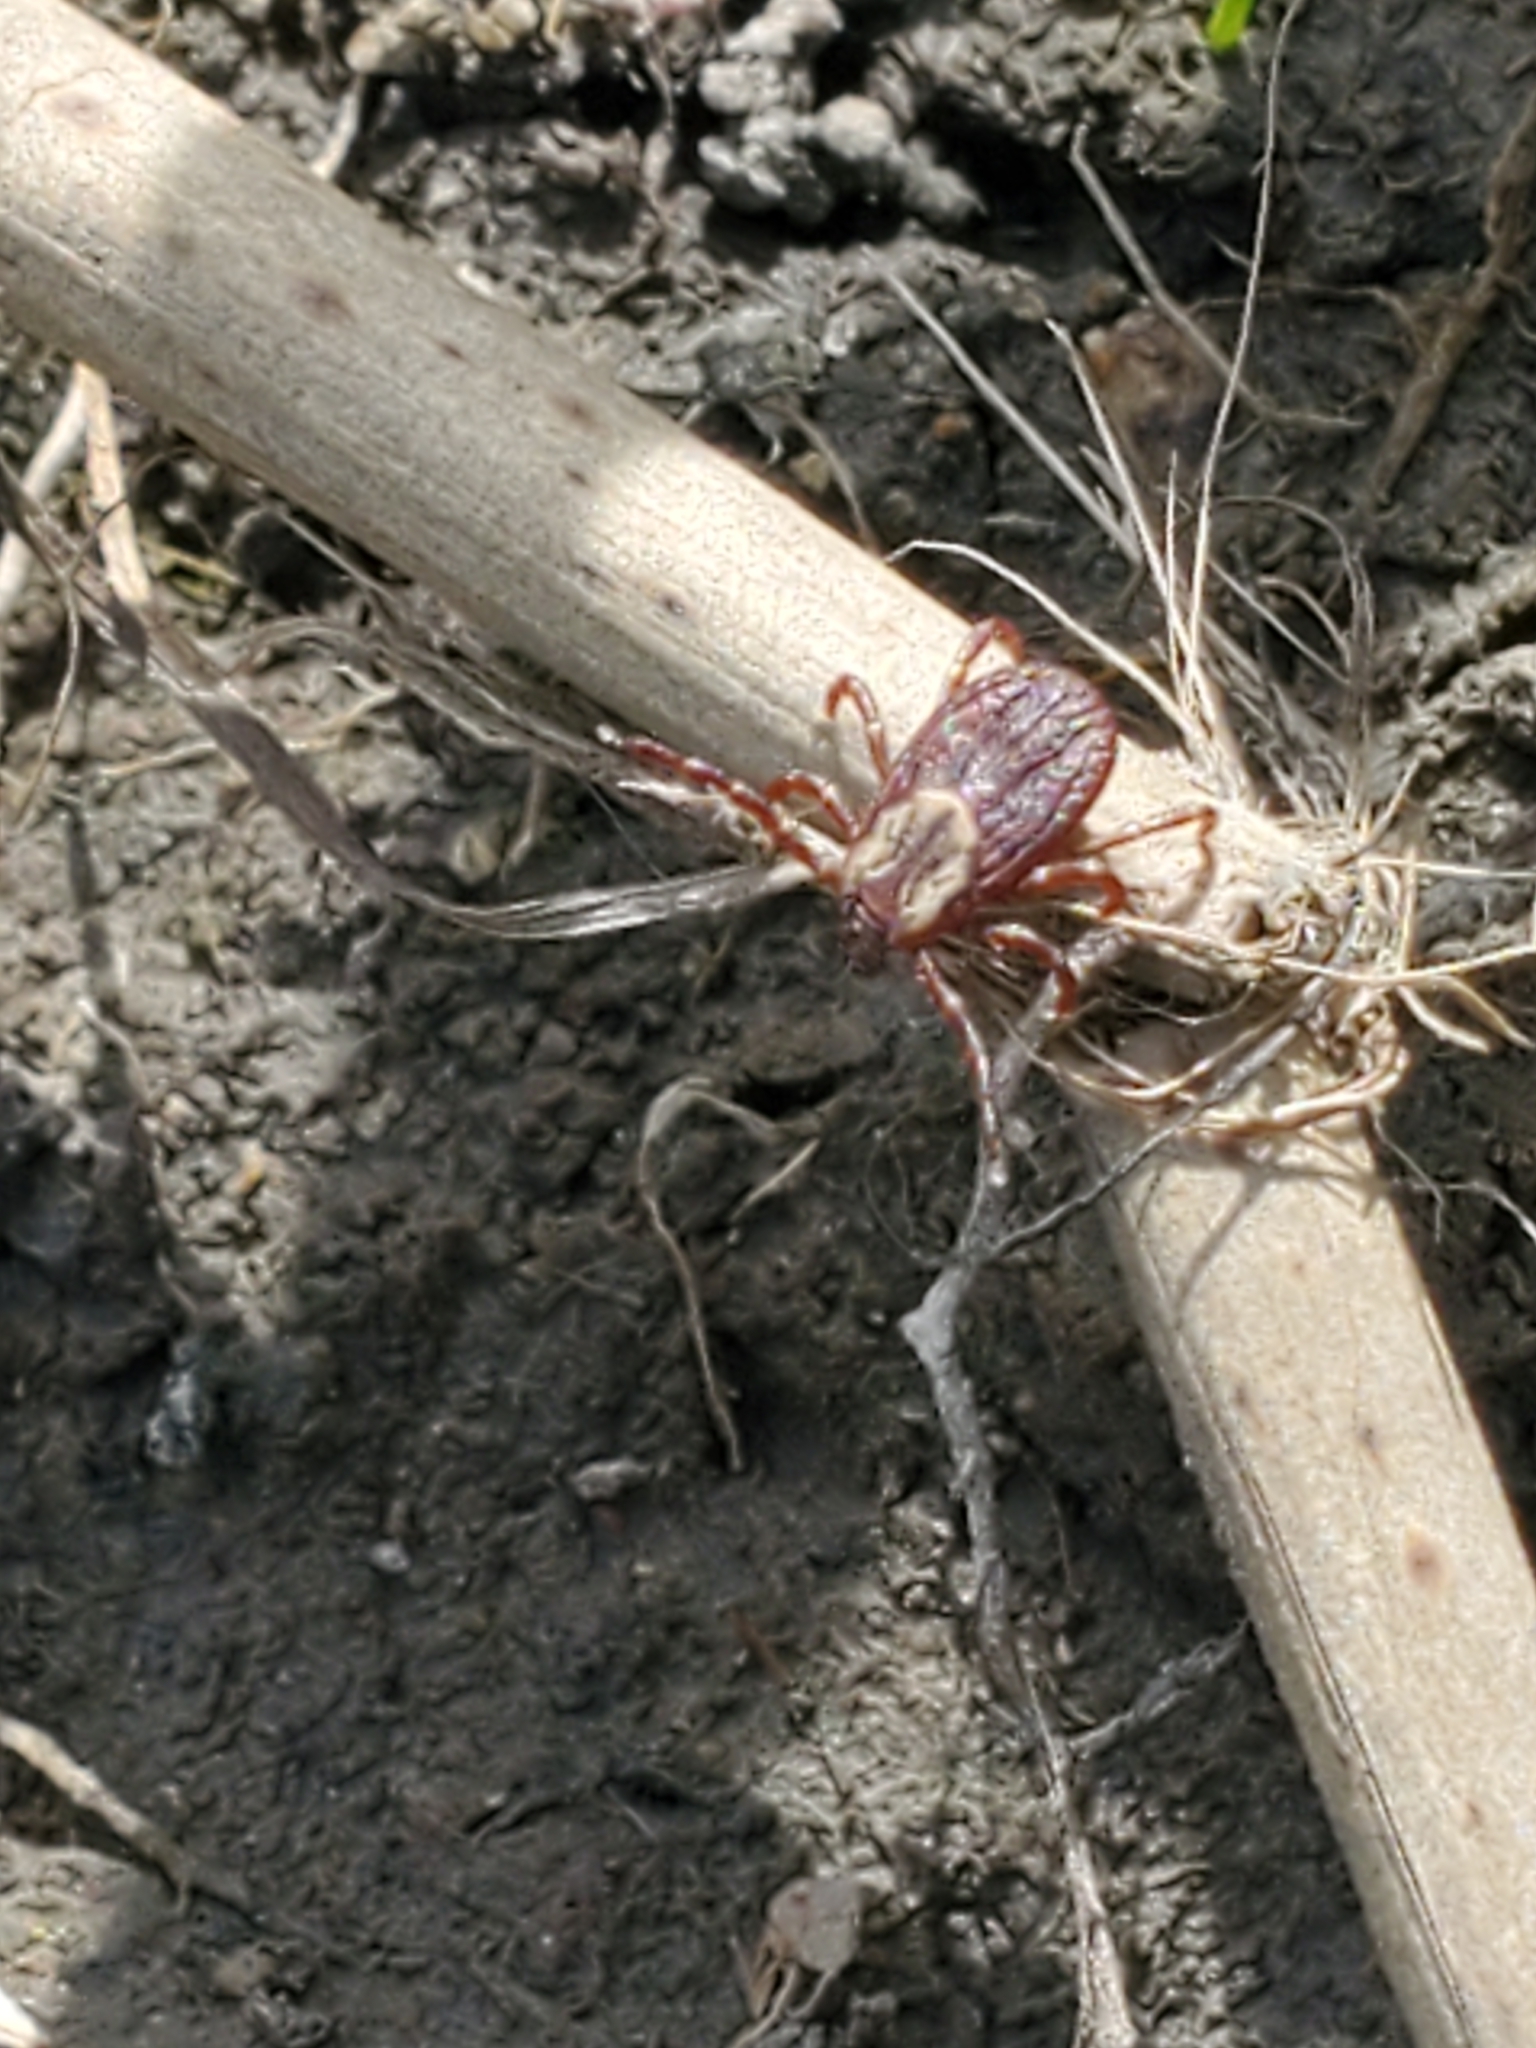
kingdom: Animalia
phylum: Arthropoda
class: Arachnida
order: Ixodida
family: Ixodidae
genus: Dermacentor
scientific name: Dermacentor variabilis
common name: American dog tick
